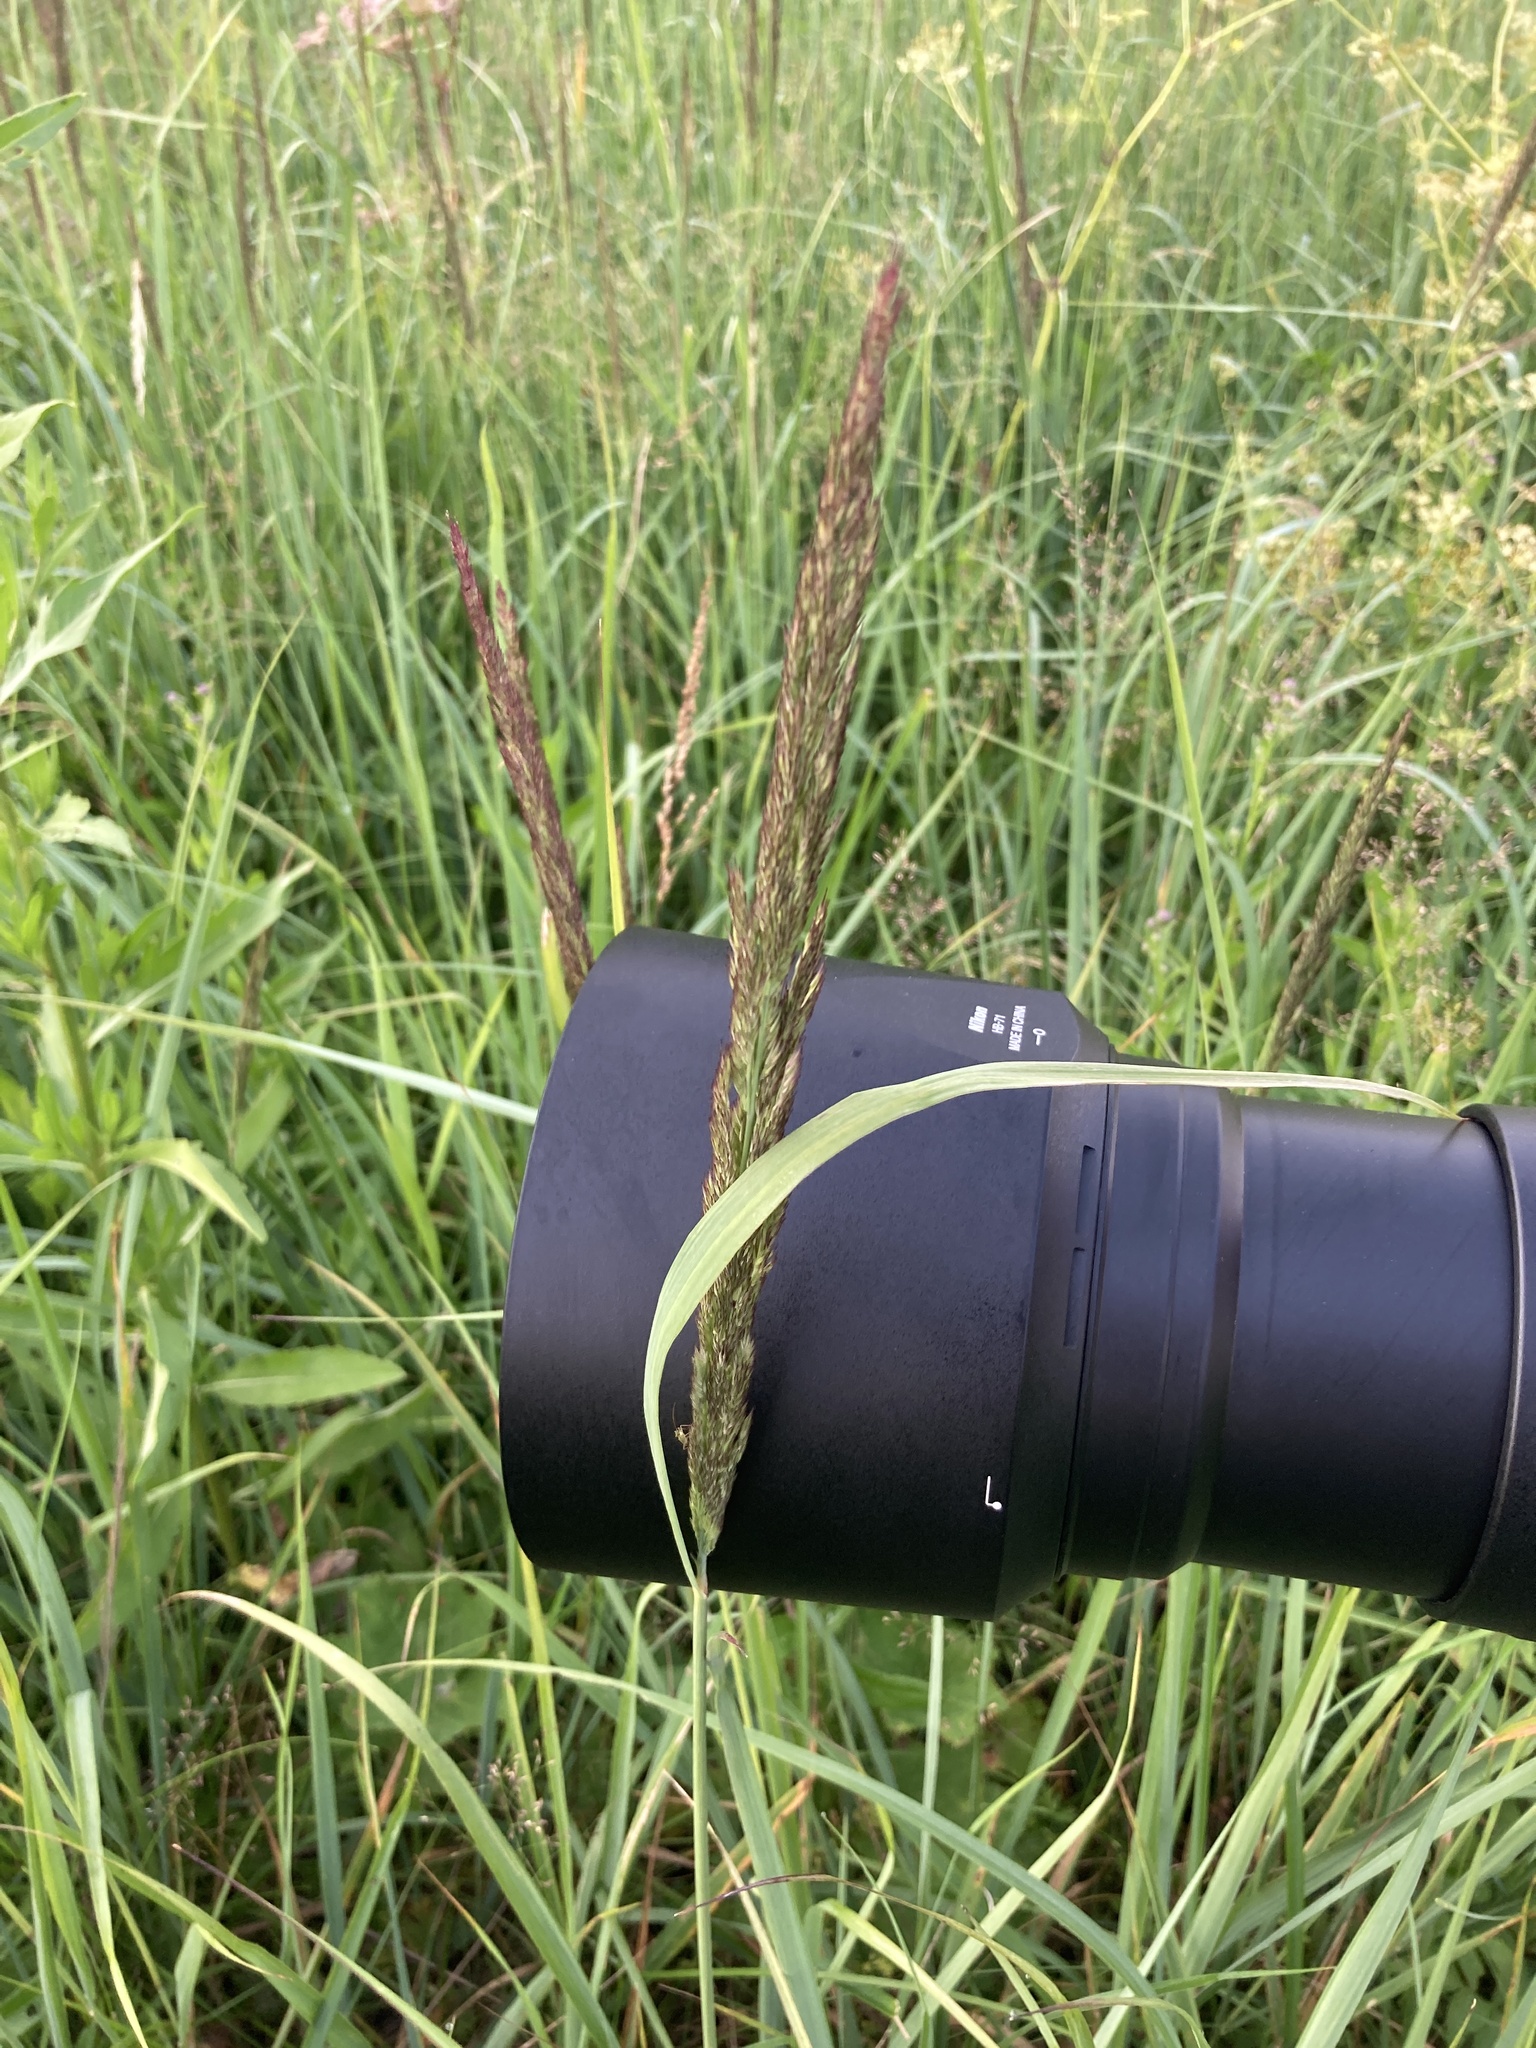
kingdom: Plantae
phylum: Tracheophyta
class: Liliopsida
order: Poales
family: Poaceae
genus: Calamagrostis
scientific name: Calamagrostis epigejos
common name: Wood small-reed
